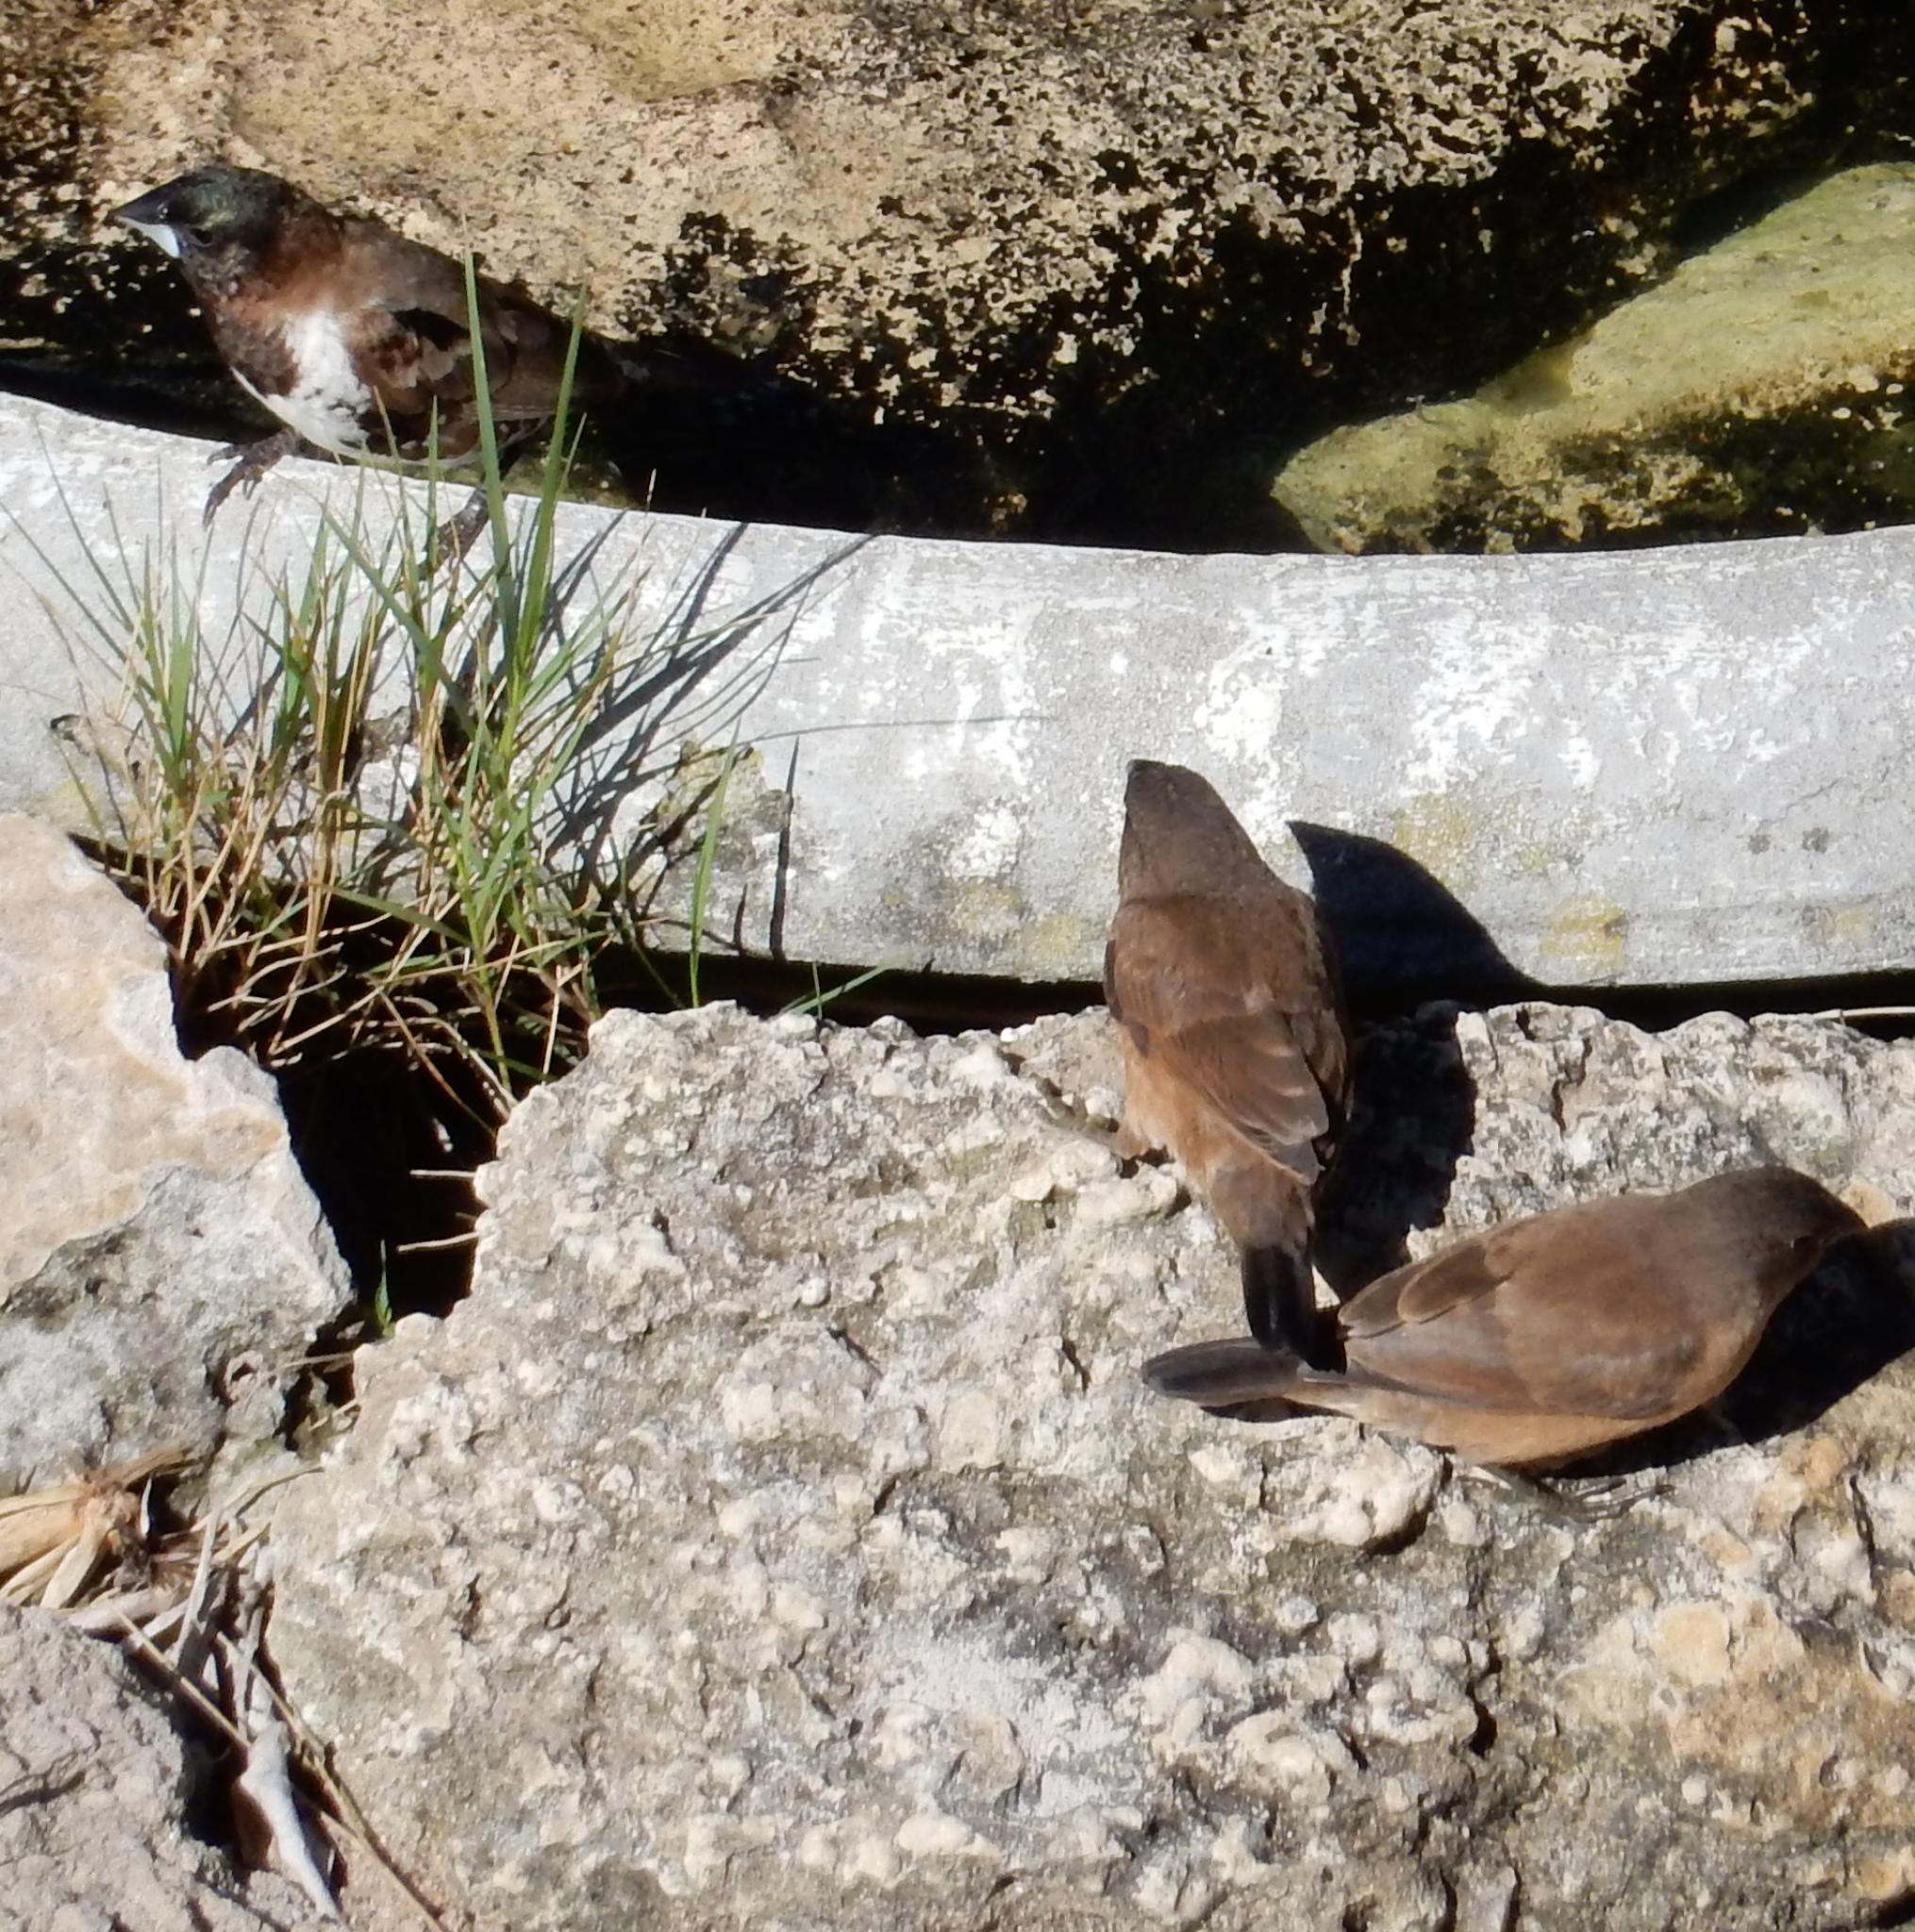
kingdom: Animalia
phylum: Chordata
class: Aves
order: Passeriformes
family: Estrildidae
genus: Lonchura
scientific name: Lonchura cucullata
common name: Bronze mannikin
